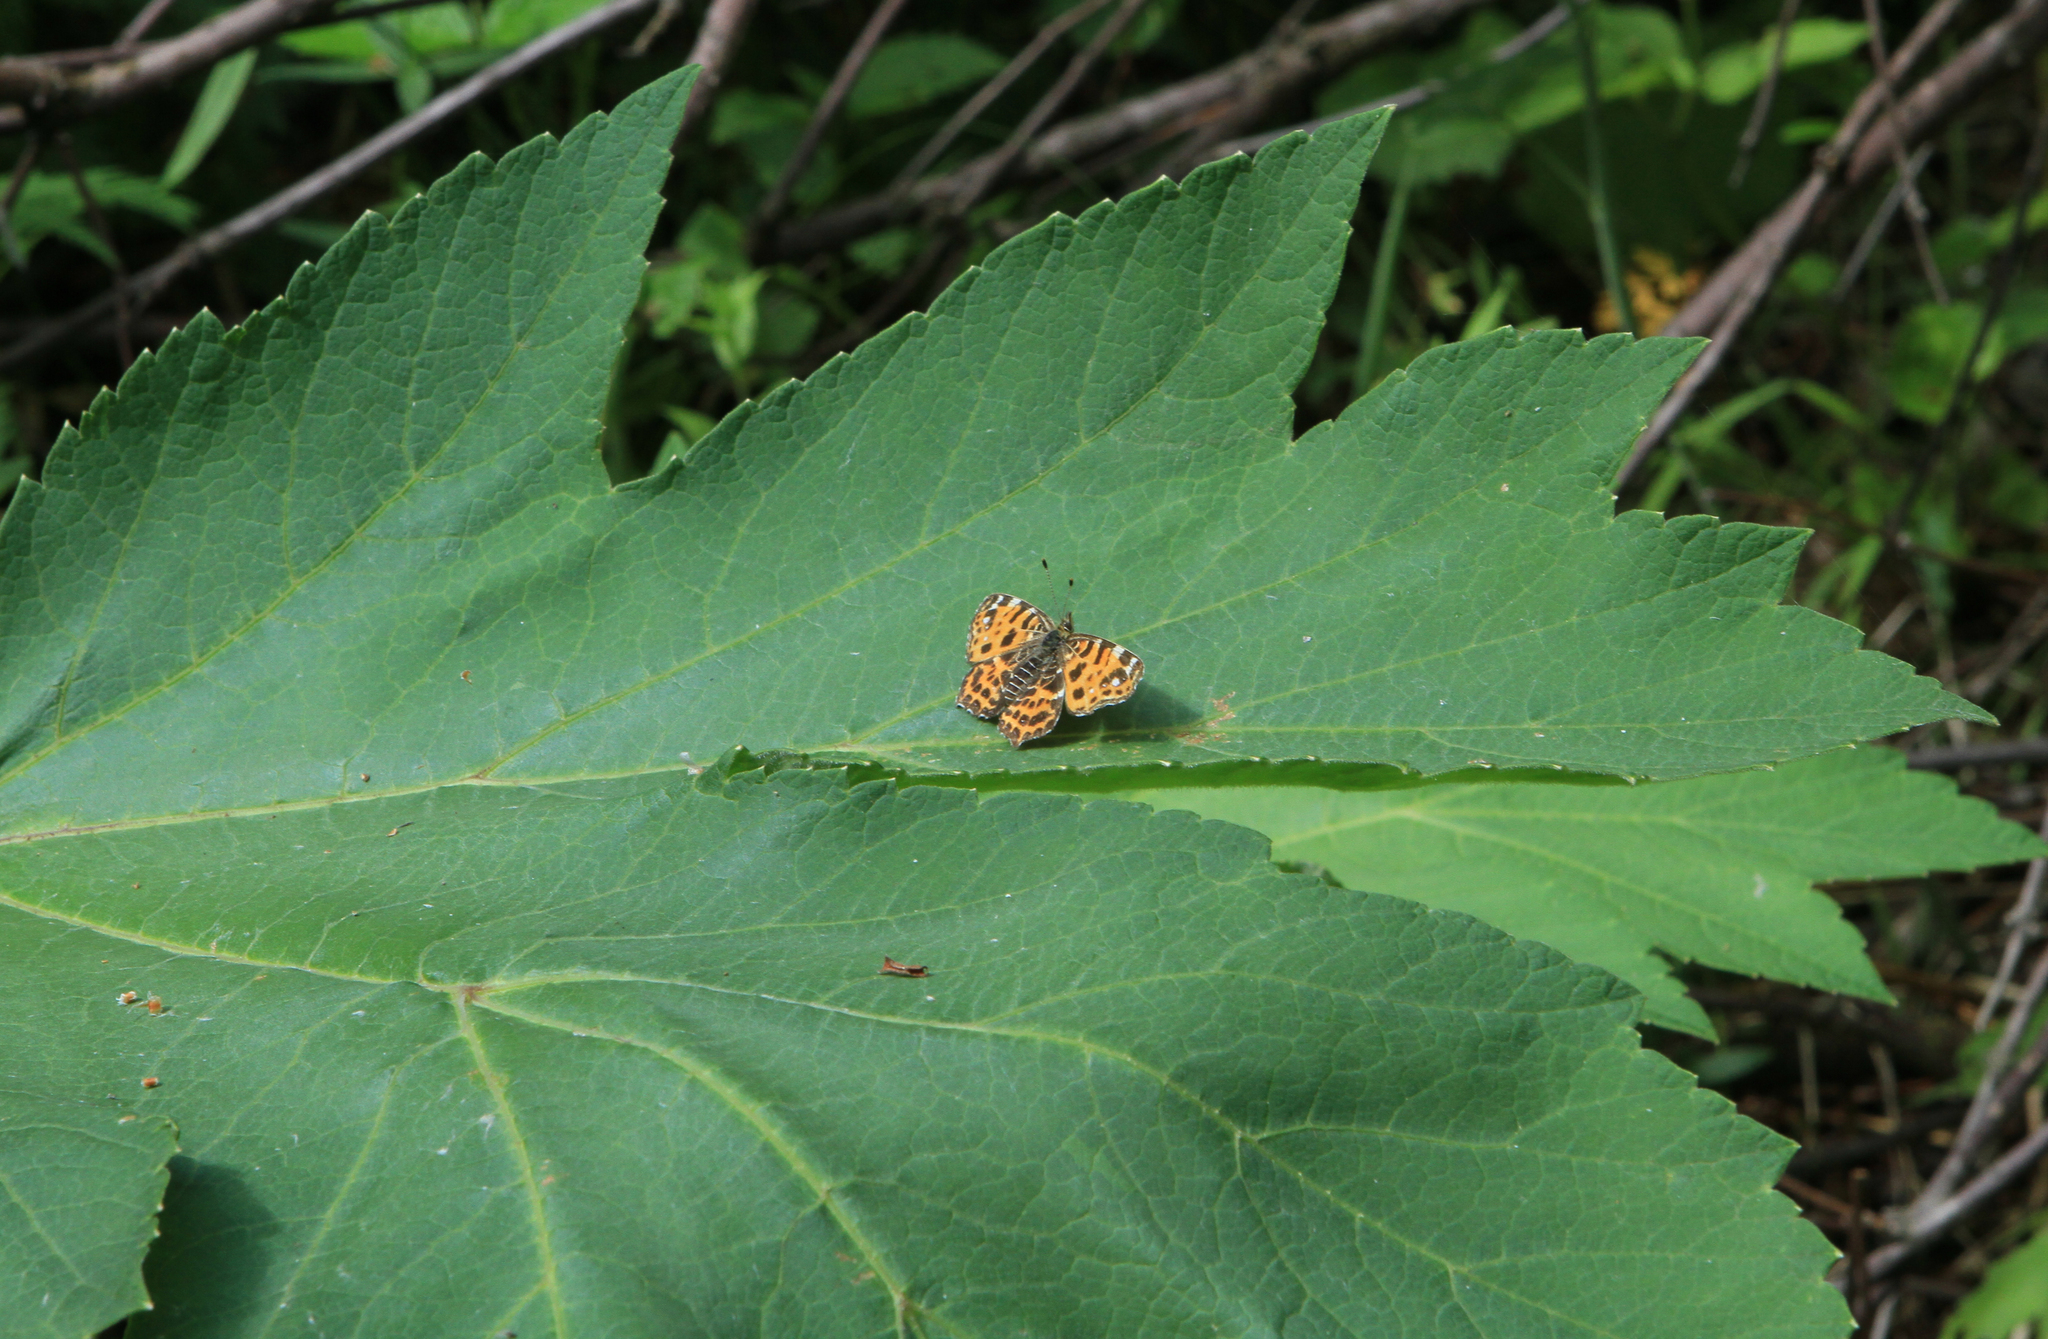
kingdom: Plantae
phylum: Tracheophyta
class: Magnoliopsida
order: Apiales
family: Apiaceae
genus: Heracleum
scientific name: Heracleum dissectum
